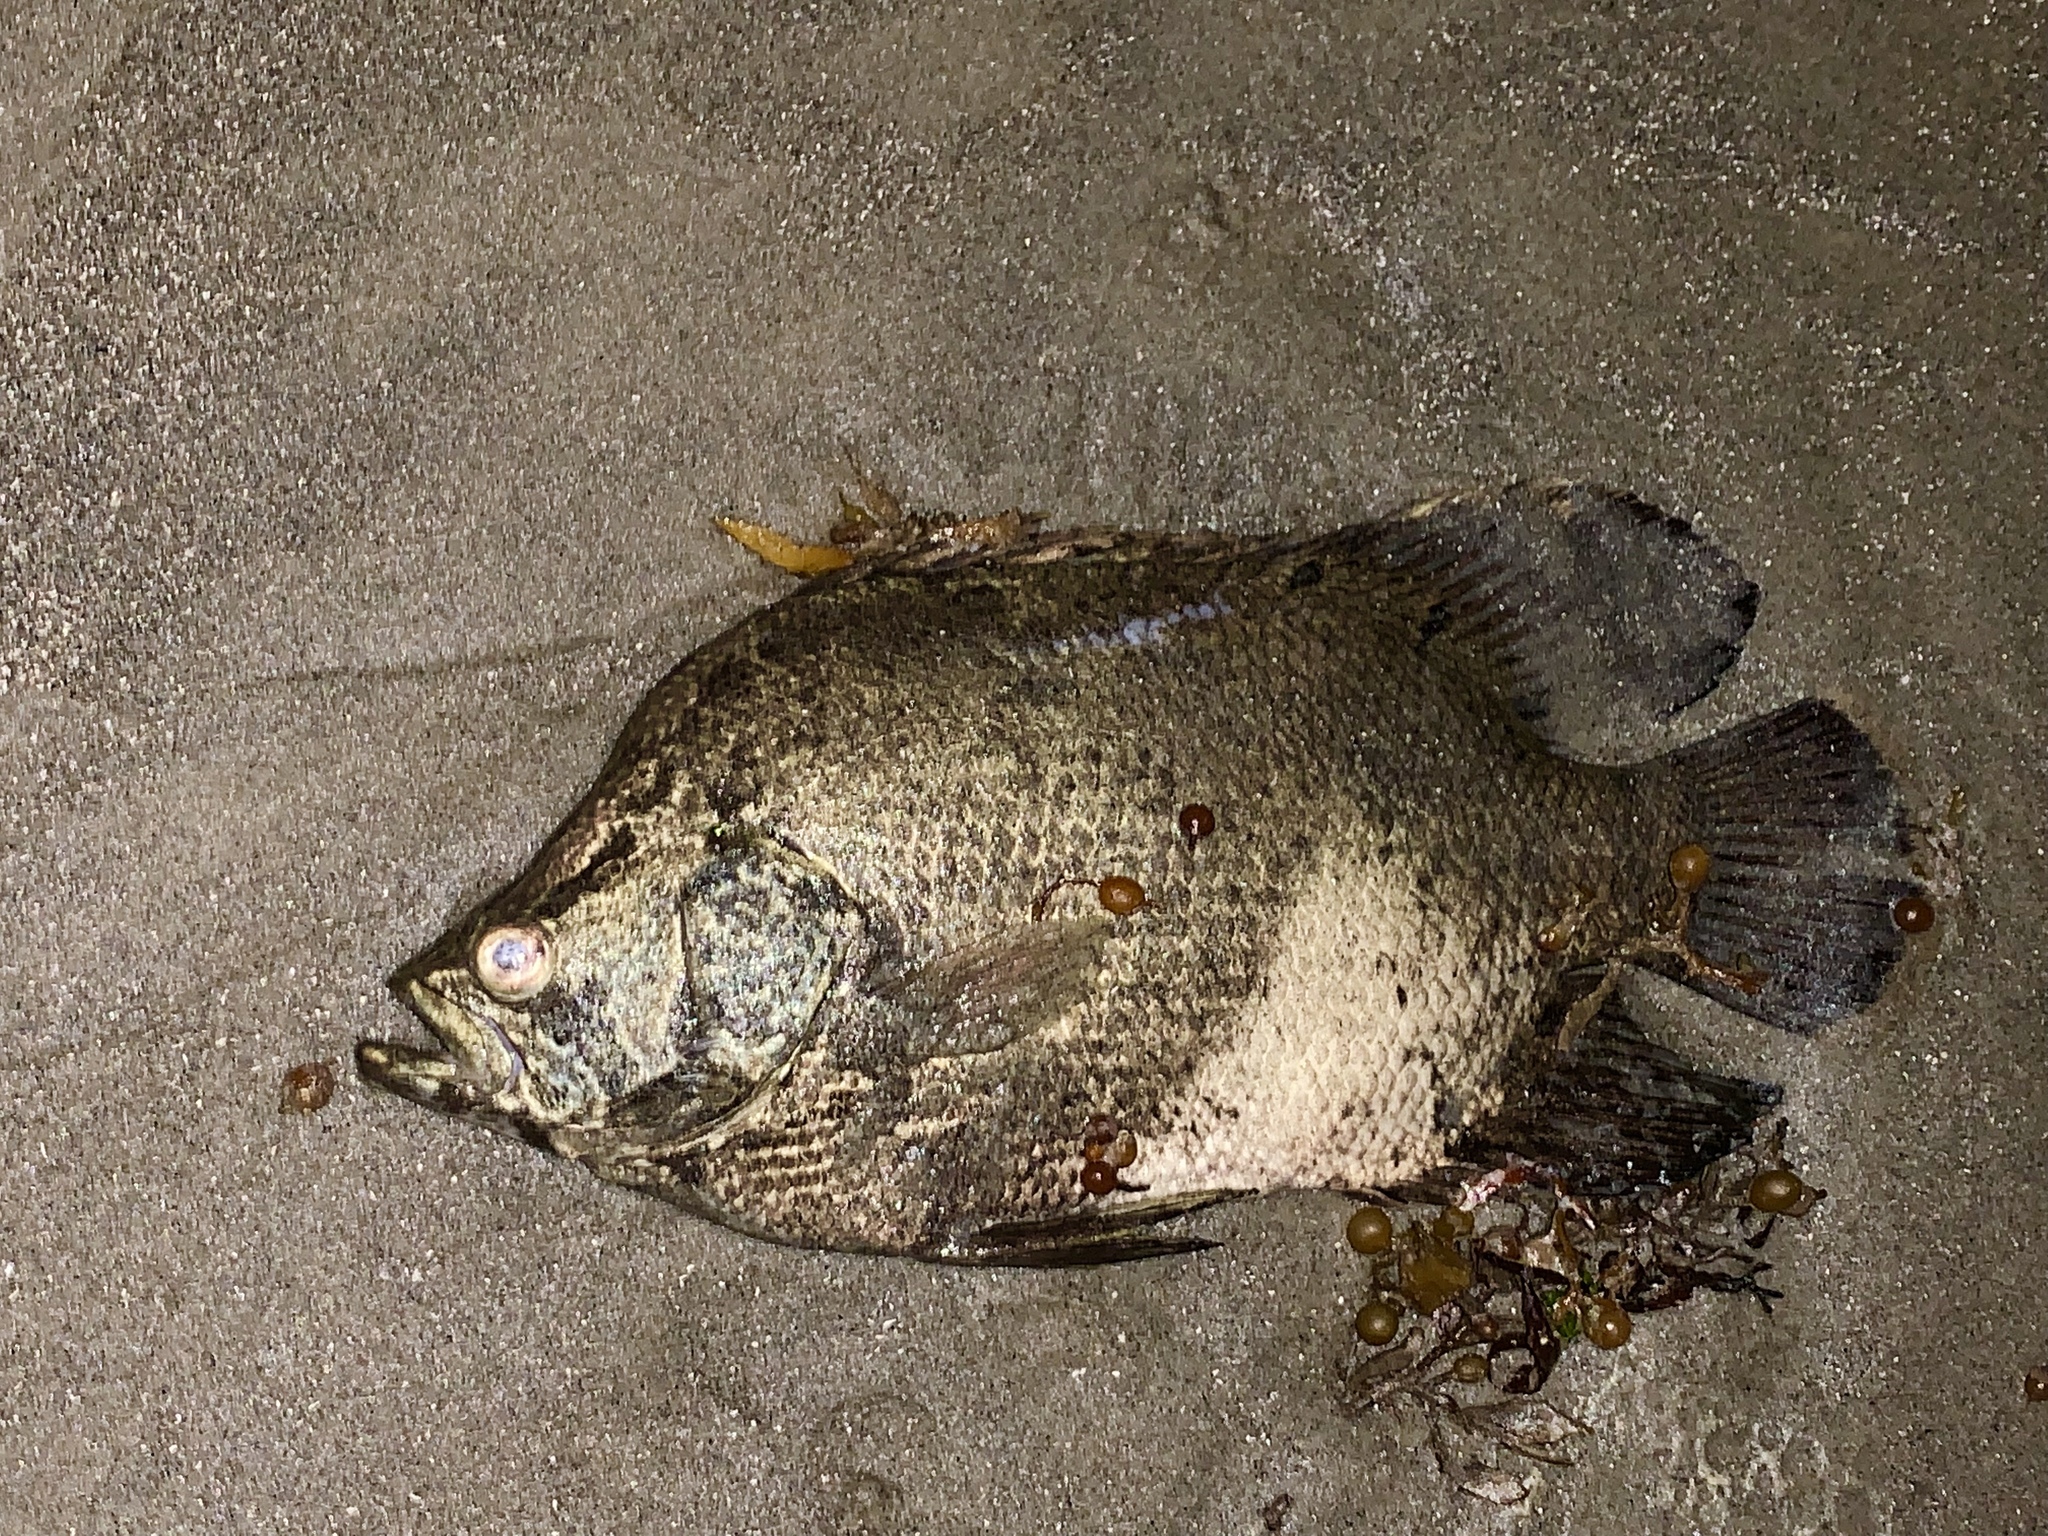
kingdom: Animalia
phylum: Chordata
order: Perciformes
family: Lobotidae
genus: Lobotes
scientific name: Lobotes surinamensis
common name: Atlantic tripletail
